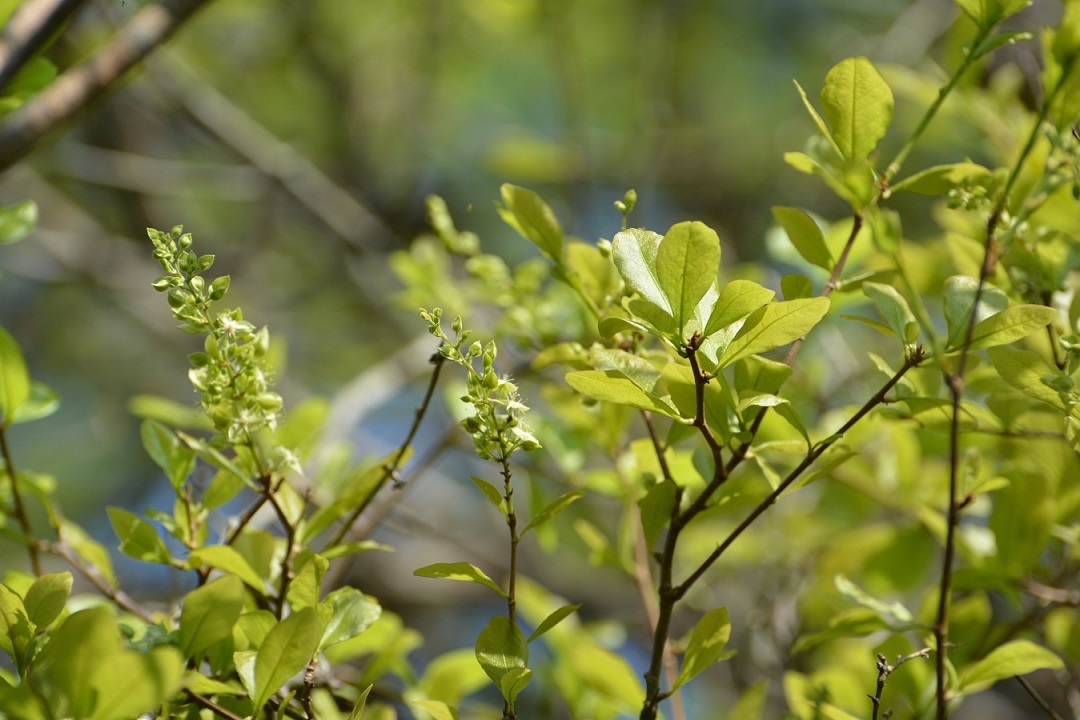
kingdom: Plantae
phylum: Tracheophyta
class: Magnoliopsida
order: Caryophyllales
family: Polygonaceae
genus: Gymnopodium
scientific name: Gymnopodium floribundum
